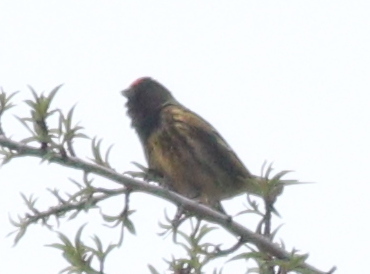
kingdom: Animalia
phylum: Chordata
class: Aves
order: Passeriformes
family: Fringillidae
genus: Serinus
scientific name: Serinus pusillus
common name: Red-fronted serin
